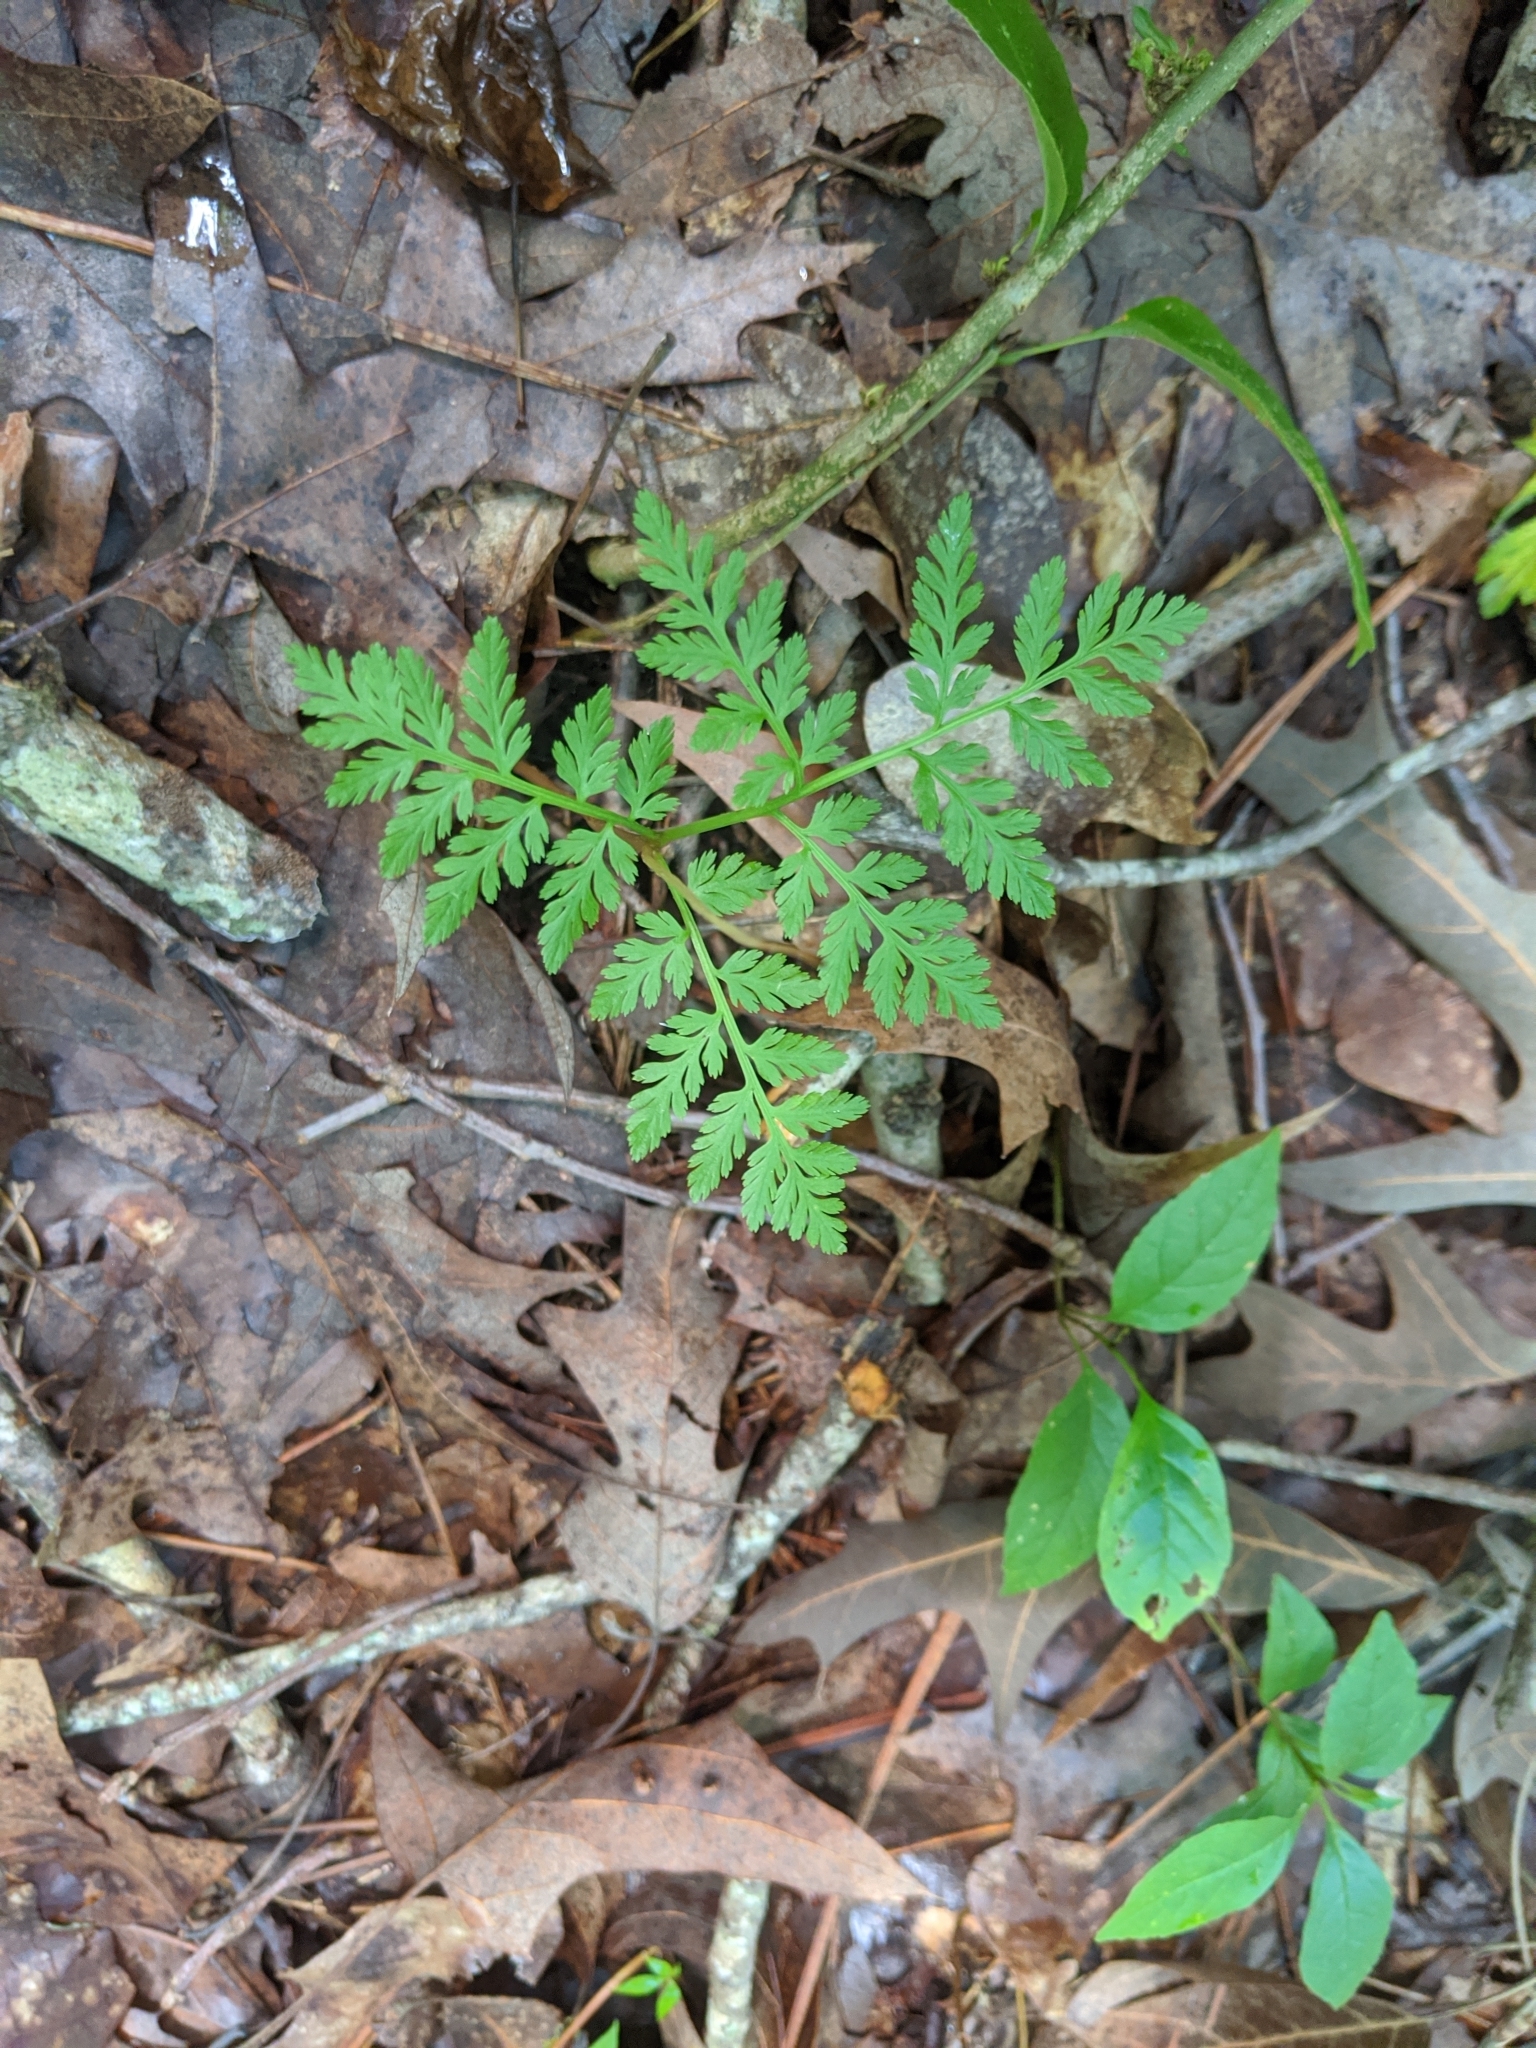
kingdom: Plantae
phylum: Tracheophyta
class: Polypodiopsida
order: Ophioglossales
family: Ophioglossaceae
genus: Botrypus
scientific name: Botrypus virginianus
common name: Common grapefern
